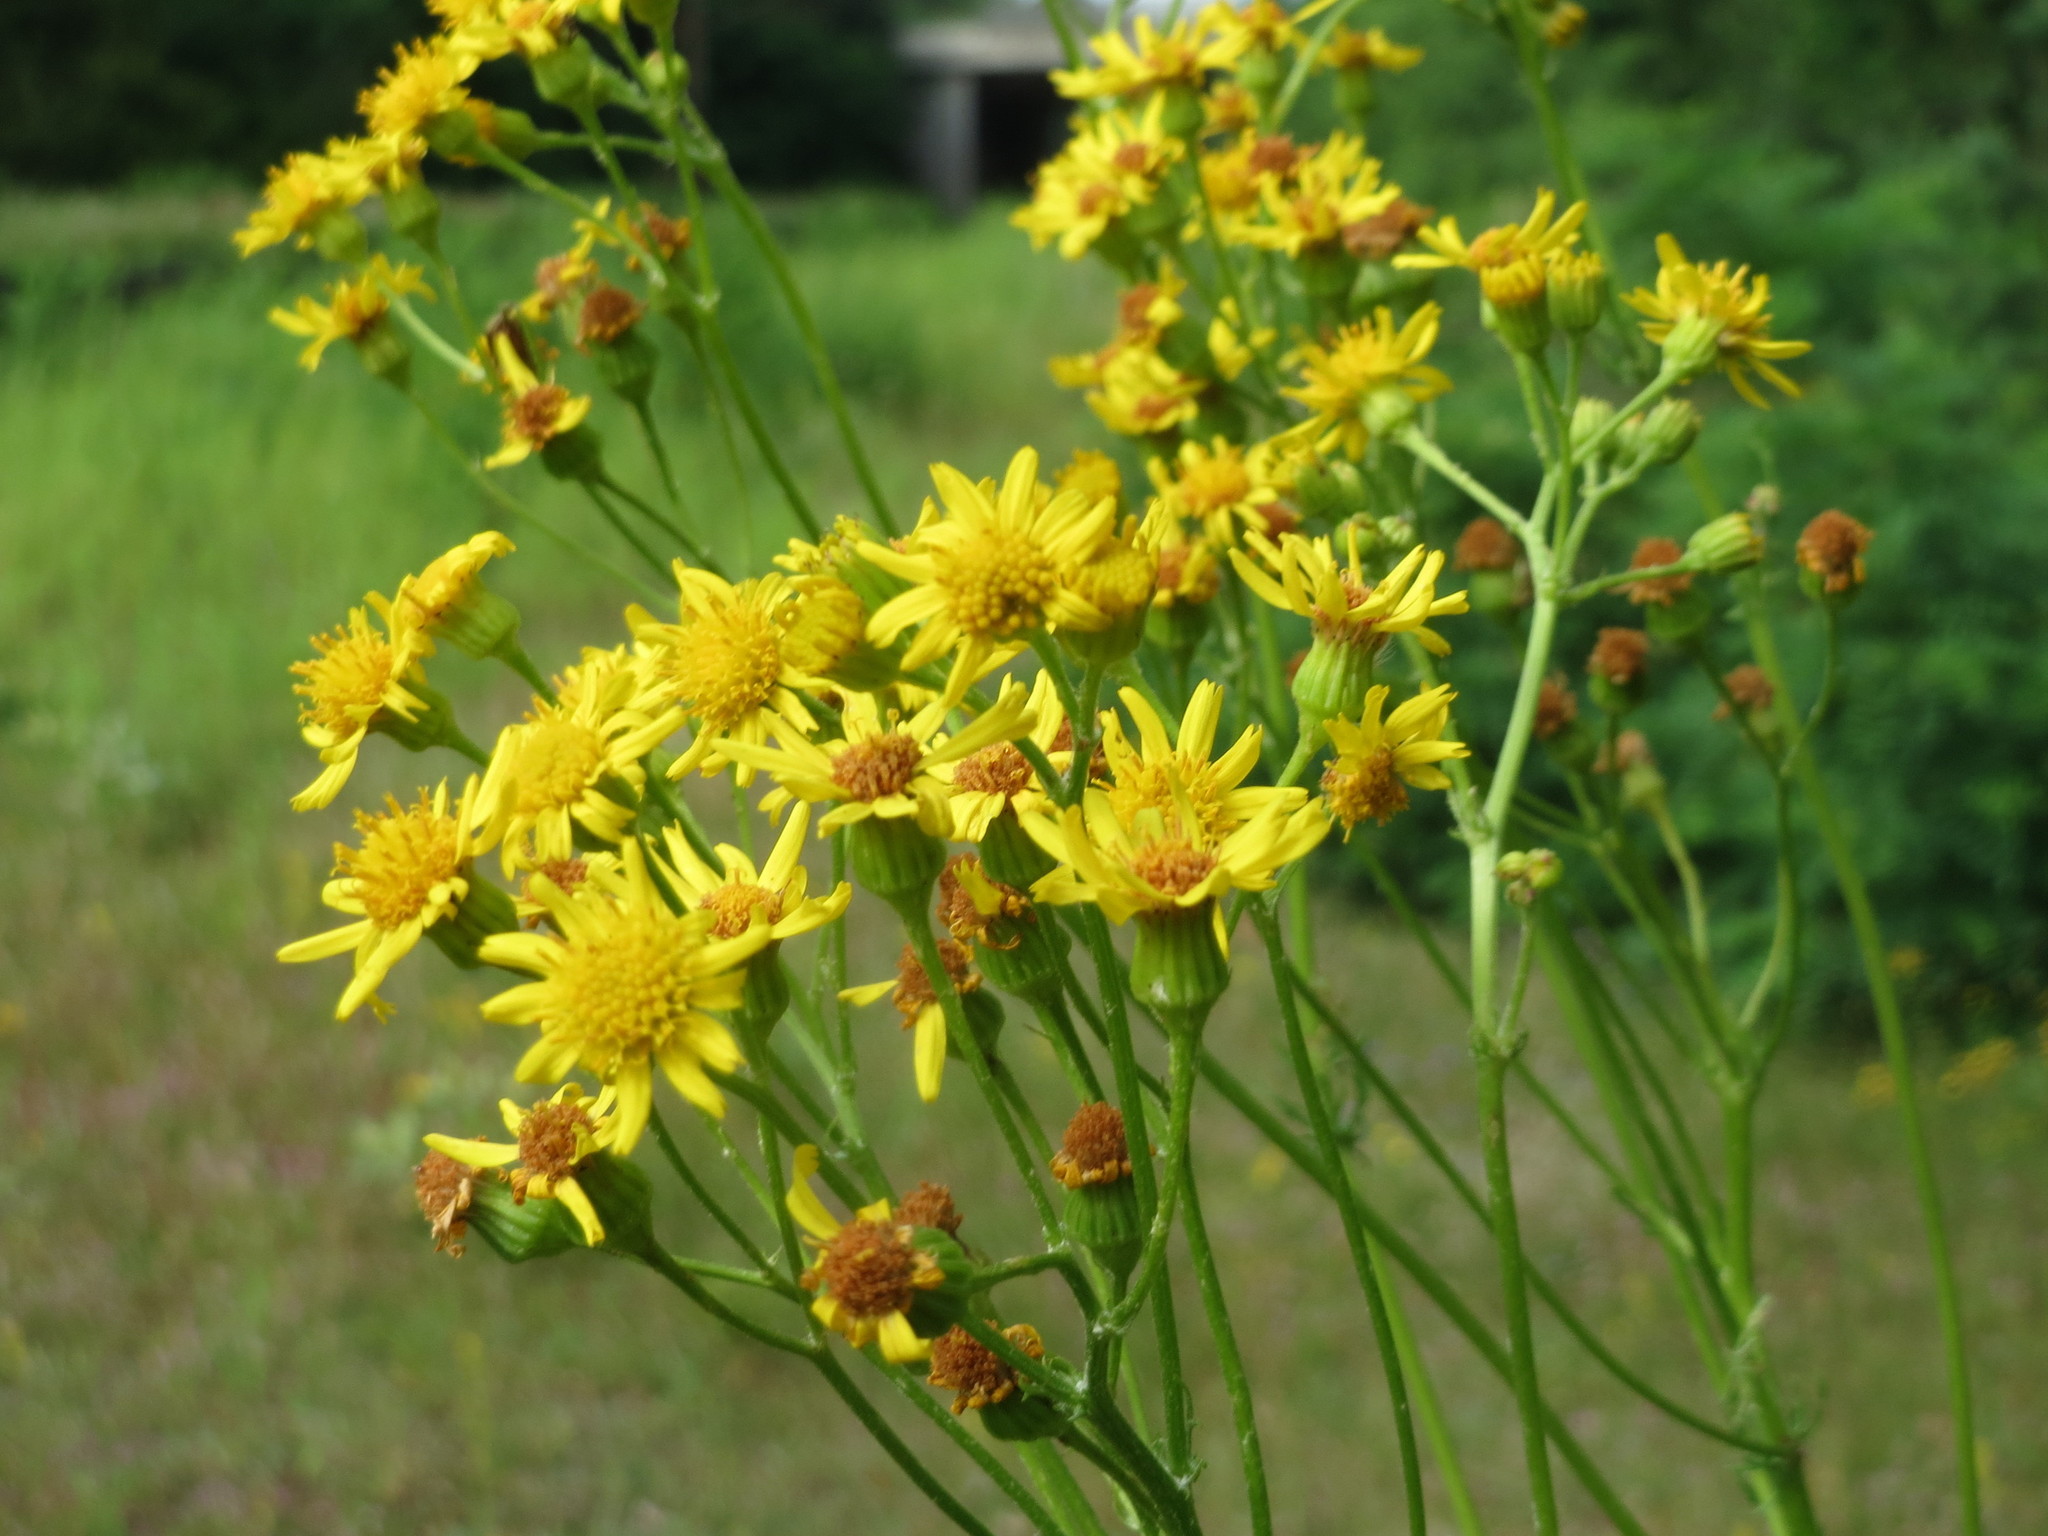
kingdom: Plantae
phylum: Tracheophyta
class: Magnoliopsida
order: Asterales
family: Asteraceae
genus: Jacobaea
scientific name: Jacobaea vulgaris
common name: Stinking willie
